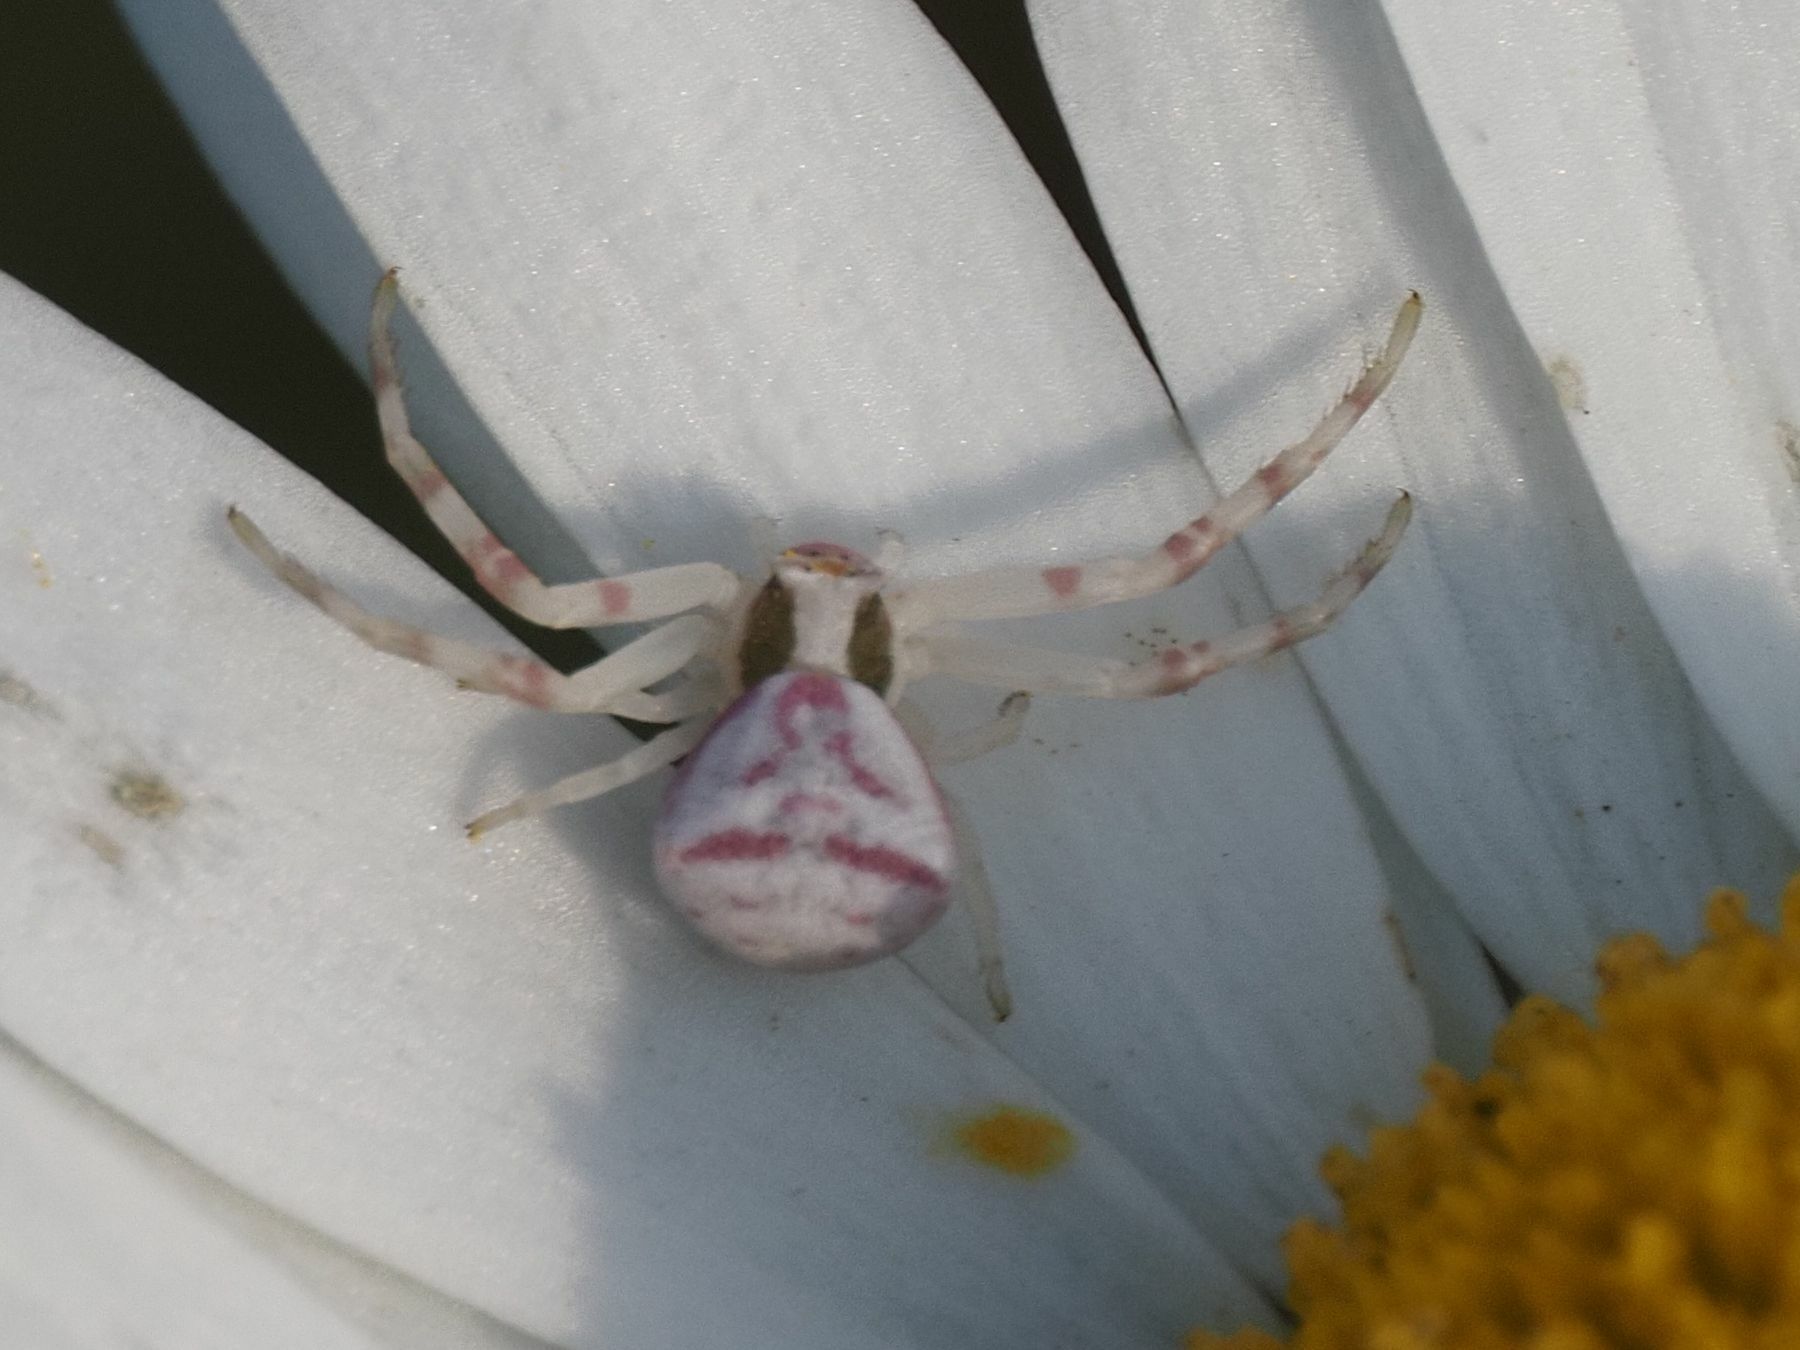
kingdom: Animalia
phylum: Arthropoda
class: Arachnida
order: Araneae
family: Thomisidae
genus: Thomisus
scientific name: Thomisus onustus
